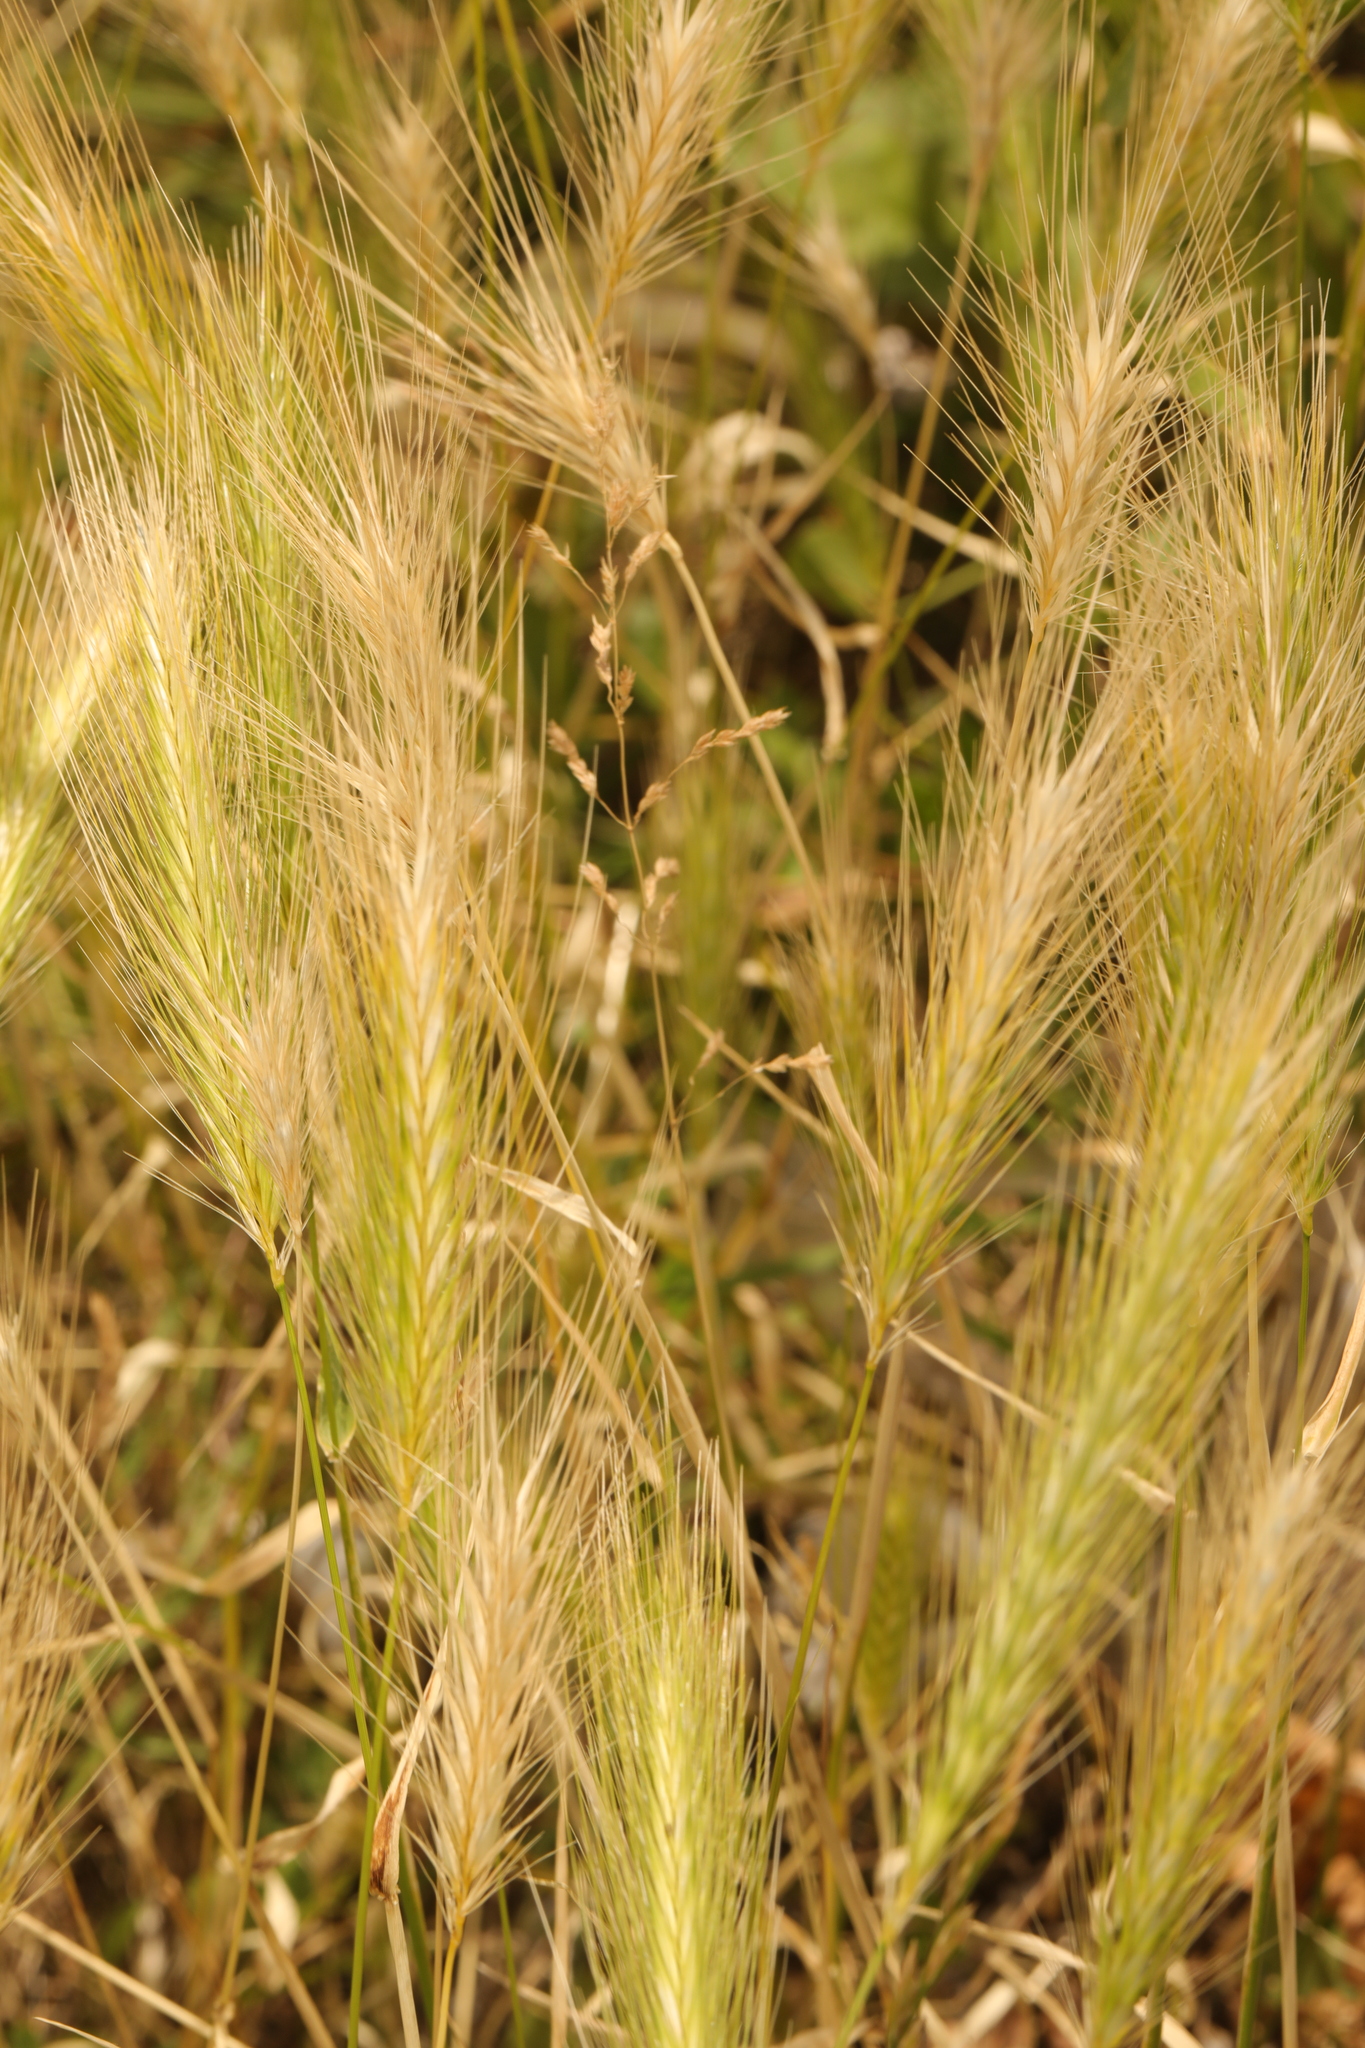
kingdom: Plantae
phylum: Tracheophyta
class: Liliopsida
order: Poales
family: Poaceae
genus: Hordeum
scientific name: Hordeum murinum
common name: Wall barley
